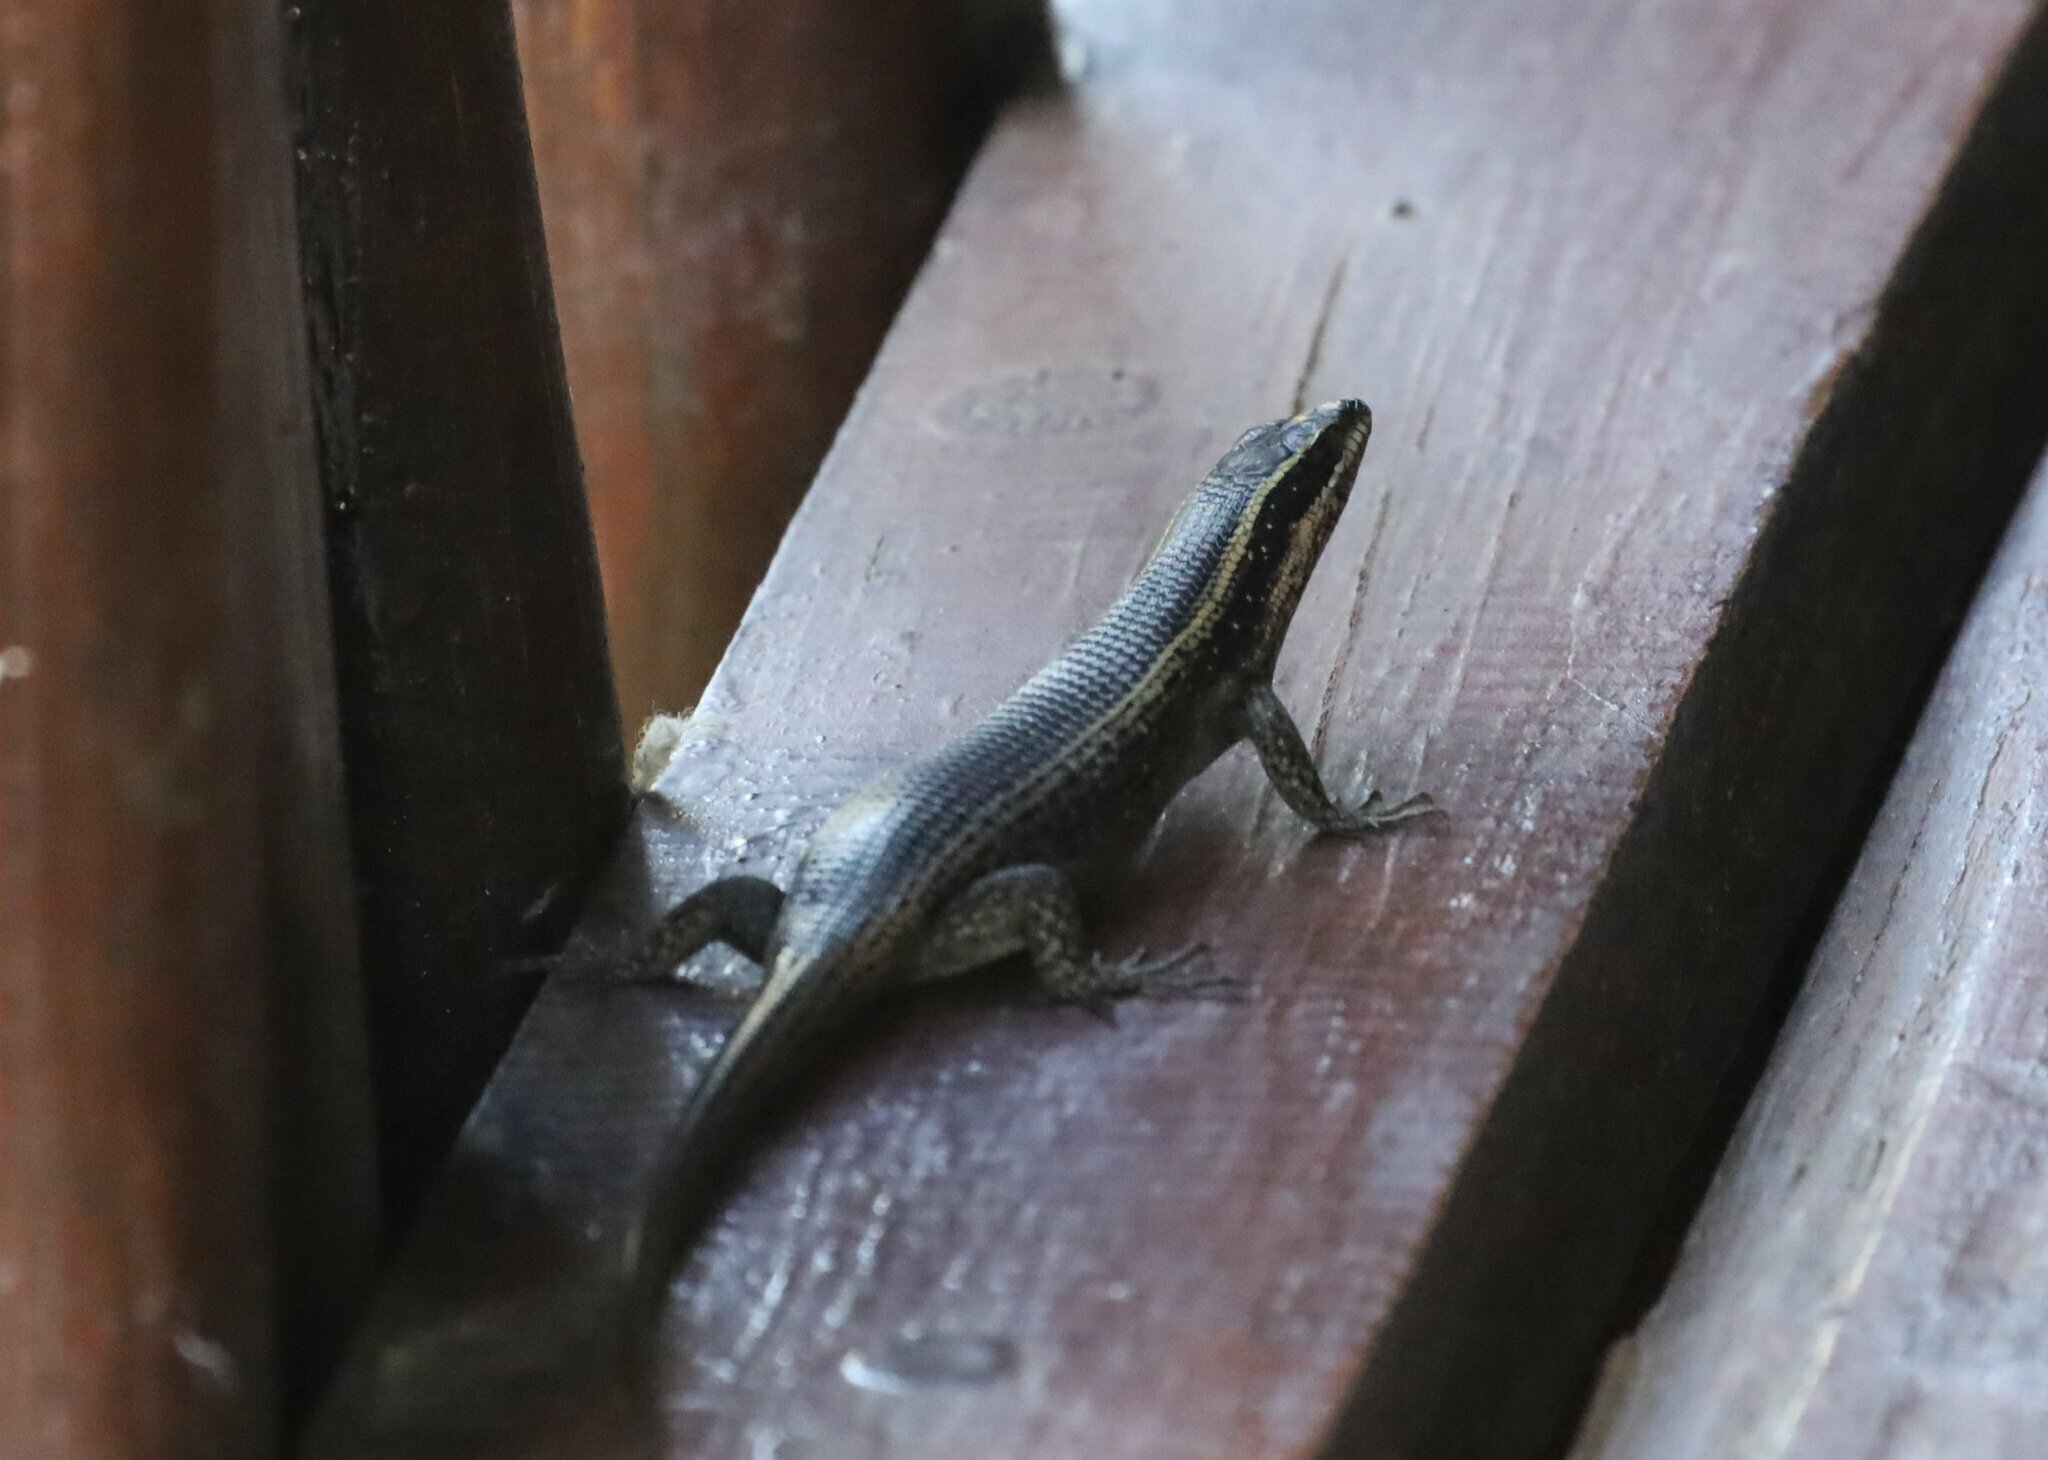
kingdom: Animalia
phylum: Chordata
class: Squamata
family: Scincidae
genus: Trachylepis
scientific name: Trachylepis punctatissima
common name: Montane speckled skink
